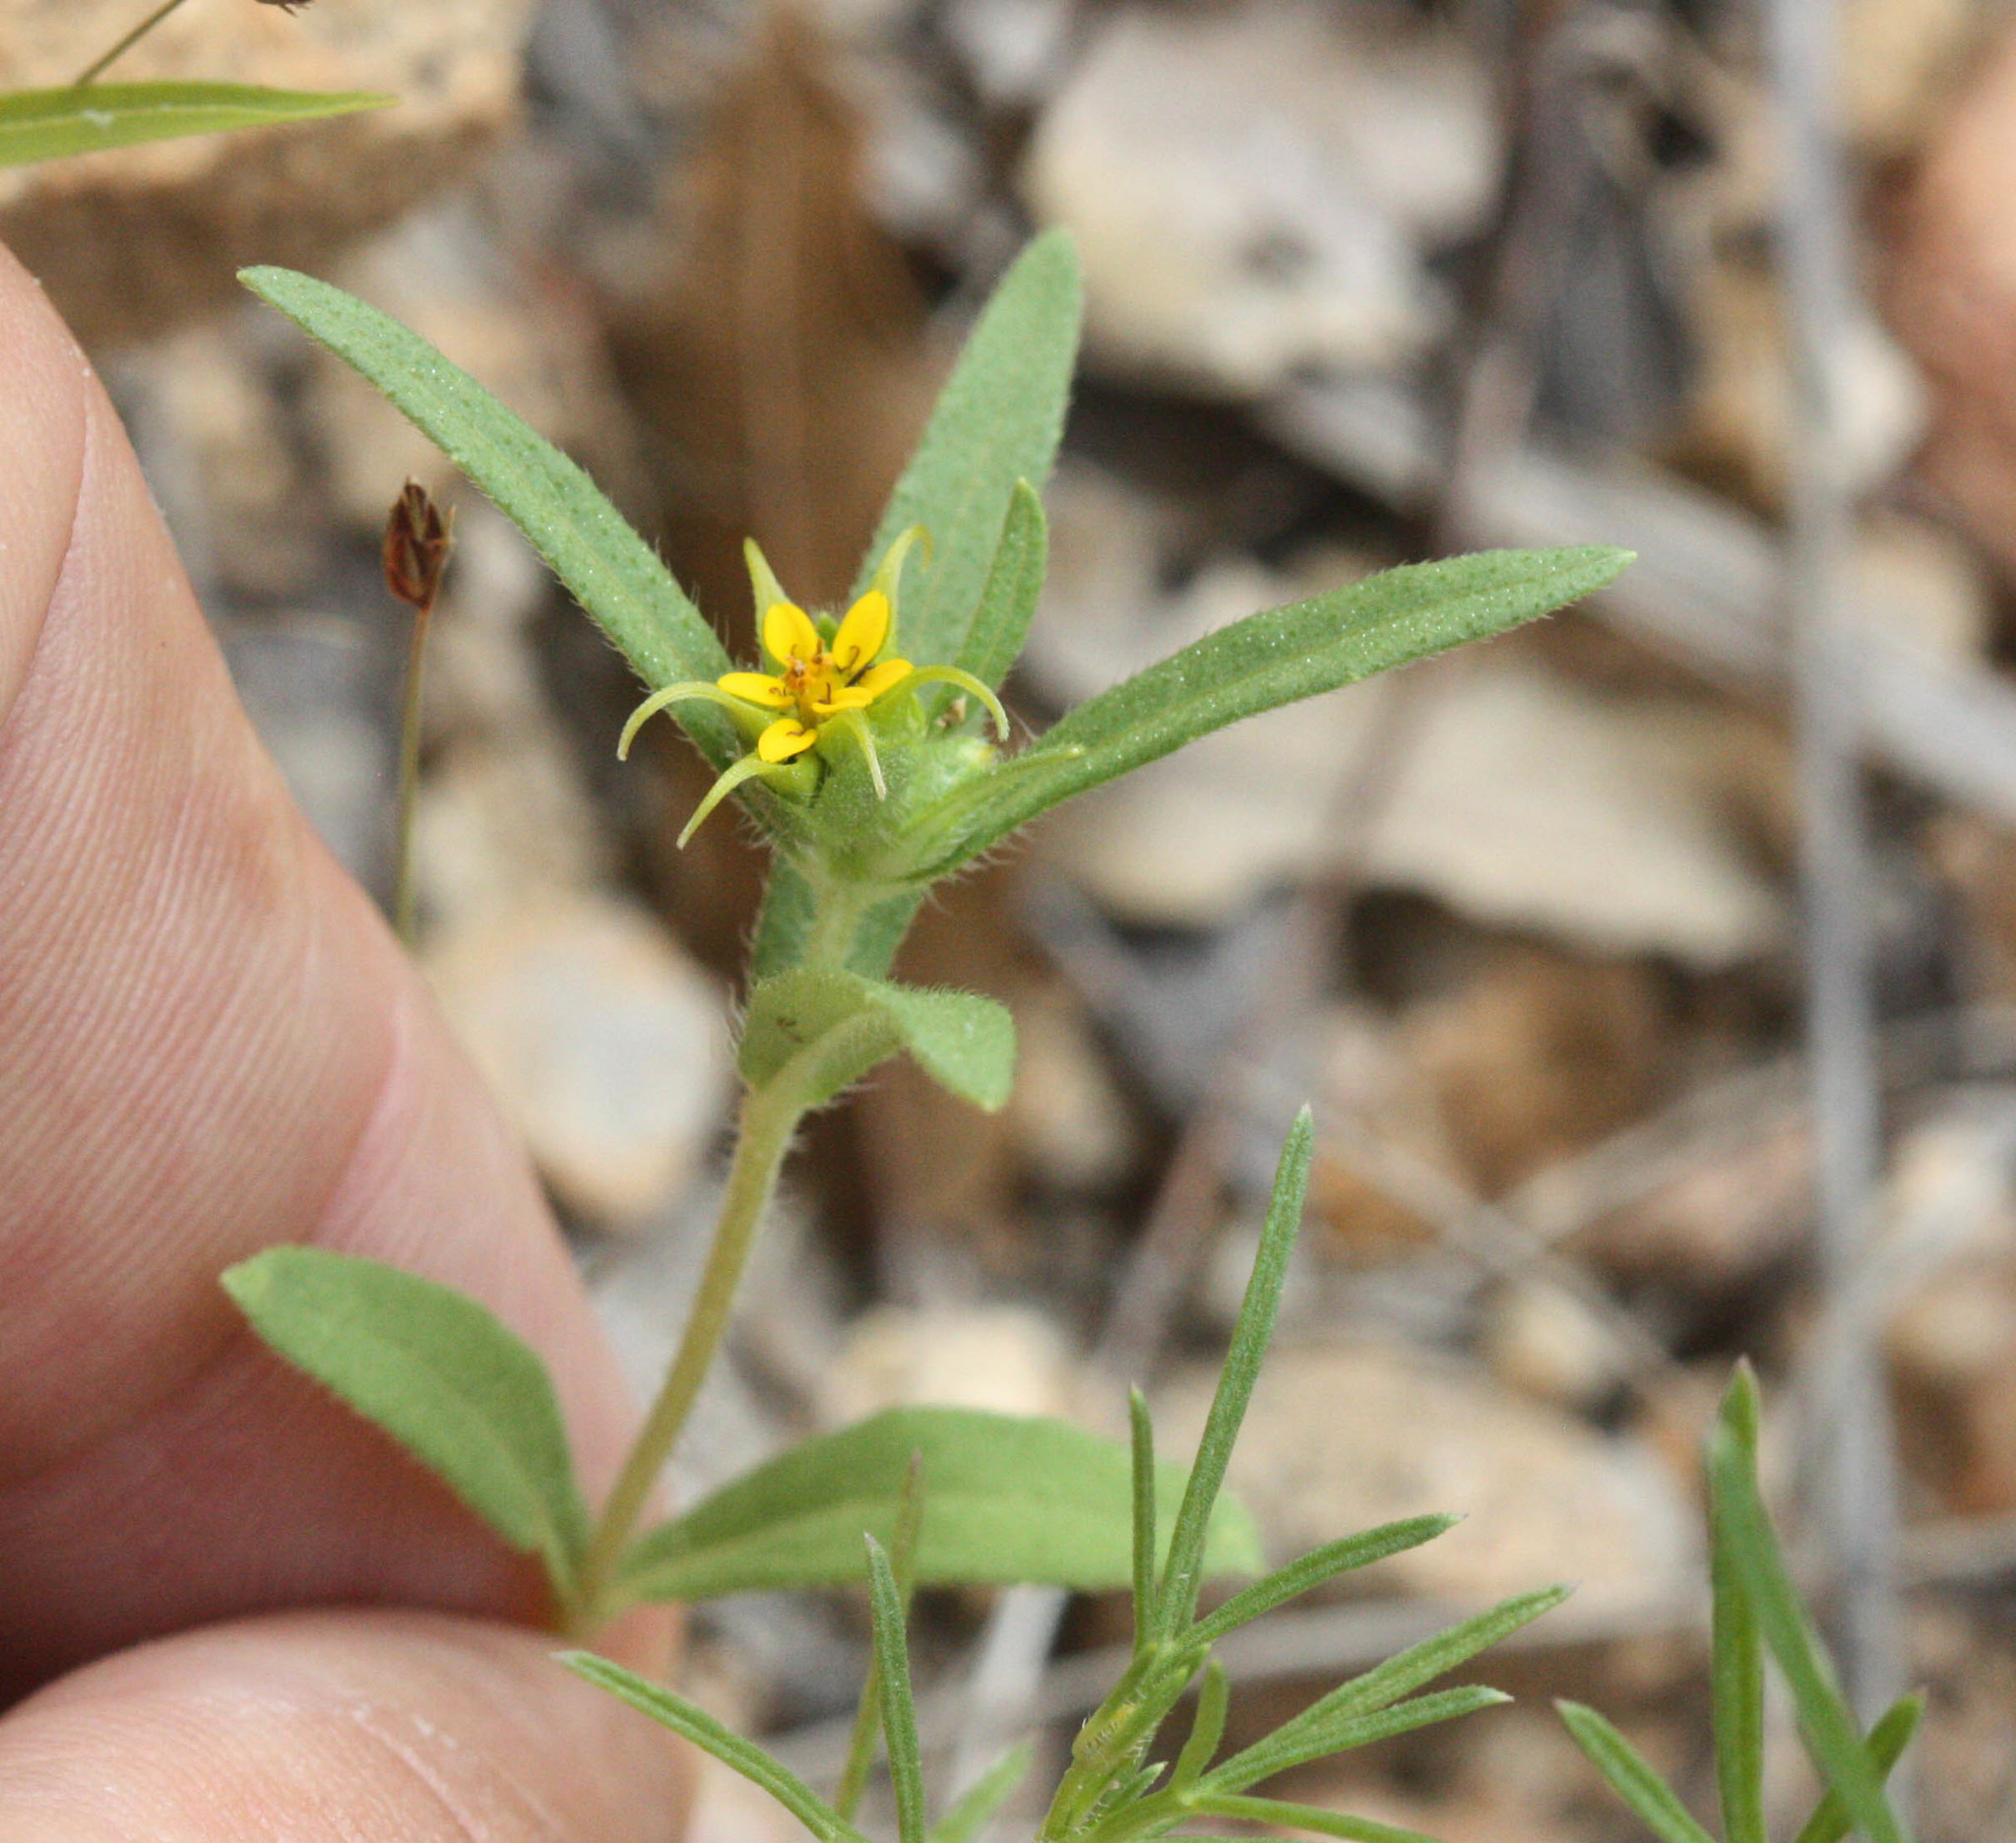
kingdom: Plantae
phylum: Tracheophyta
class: Magnoliopsida
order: Asterales
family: Asteraceae
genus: Melampodium
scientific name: Melampodium longicorne
